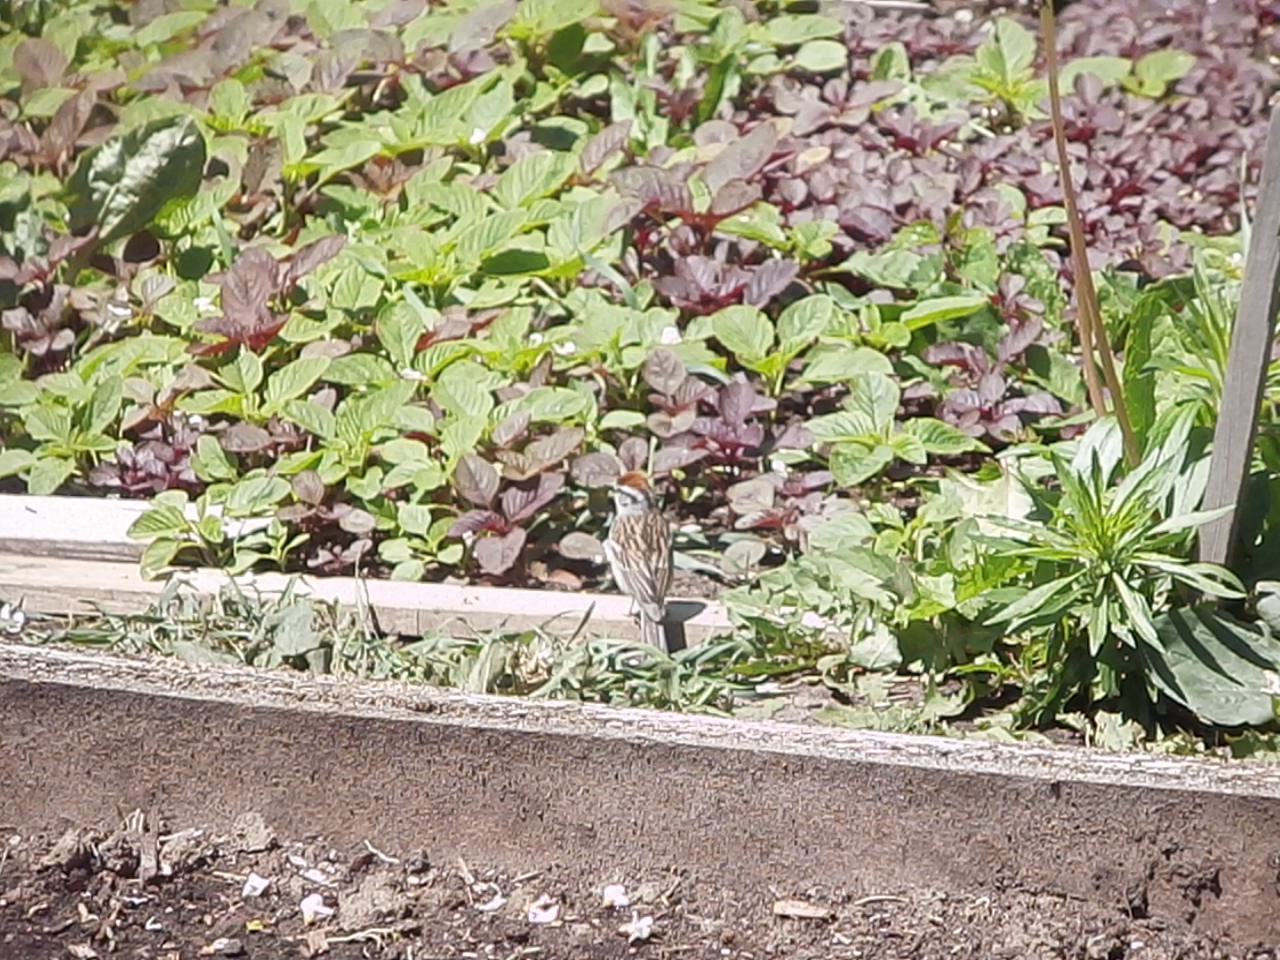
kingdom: Animalia
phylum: Chordata
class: Aves
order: Passeriformes
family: Passerellidae
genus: Spizella
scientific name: Spizella passerina
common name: Chipping sparrow
